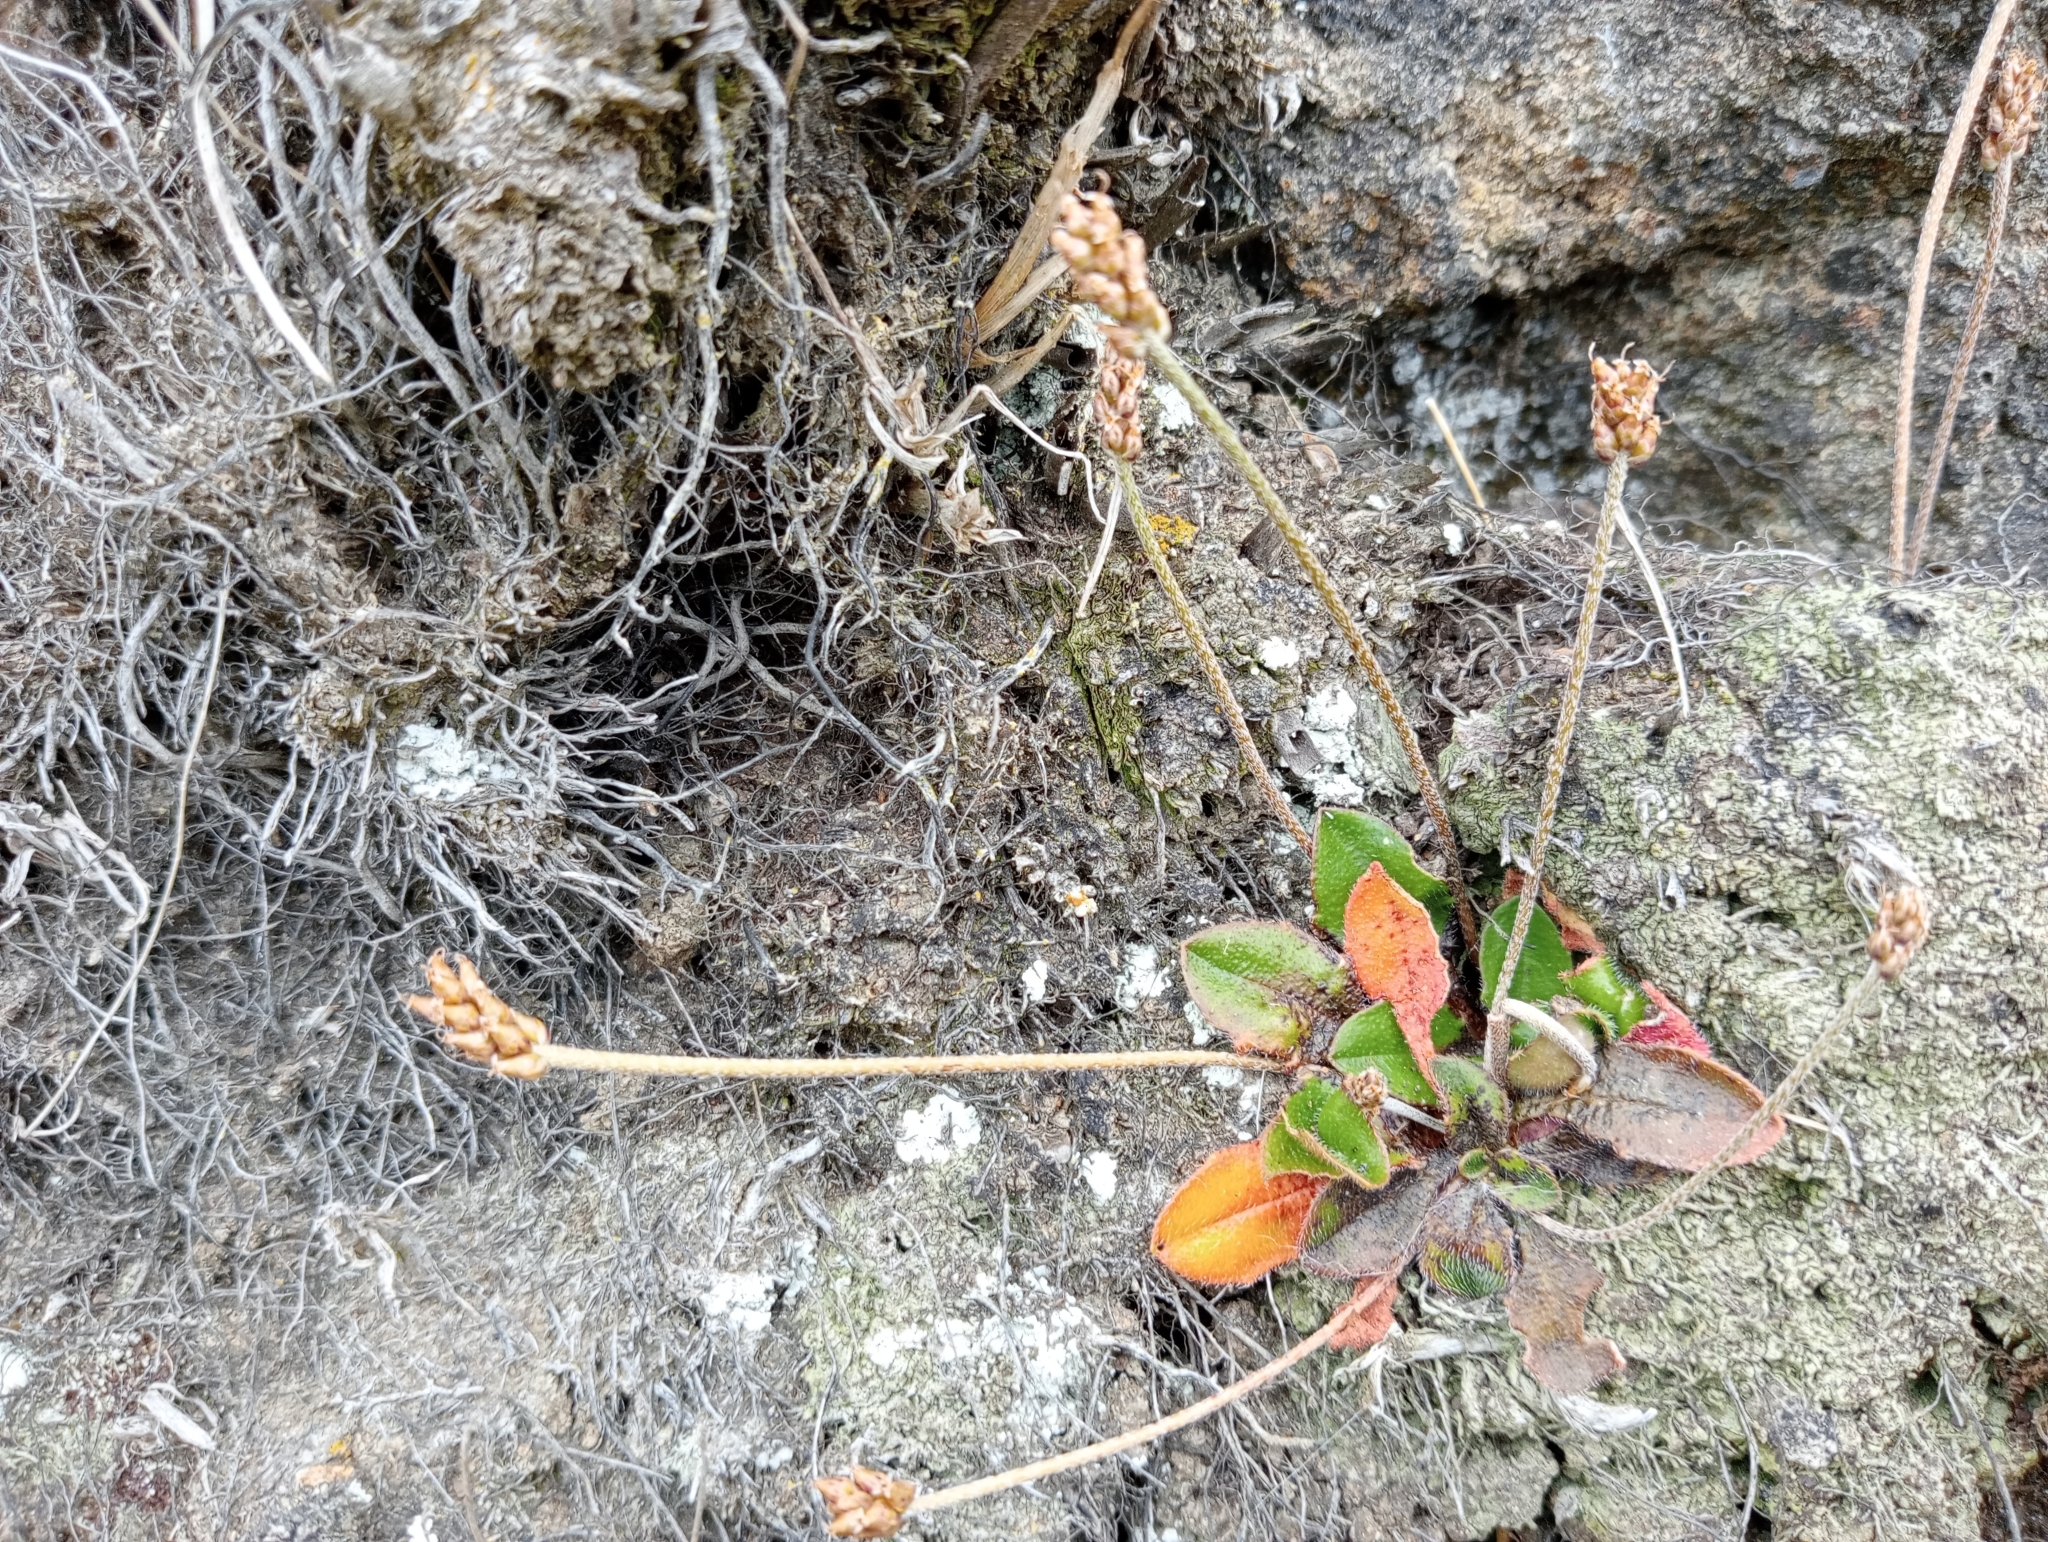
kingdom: Plantae
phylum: Tracheophyta
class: Magnoliopsida
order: Lamiales
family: Plantaginaceae
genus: Plantago
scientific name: Plantago raoulii
